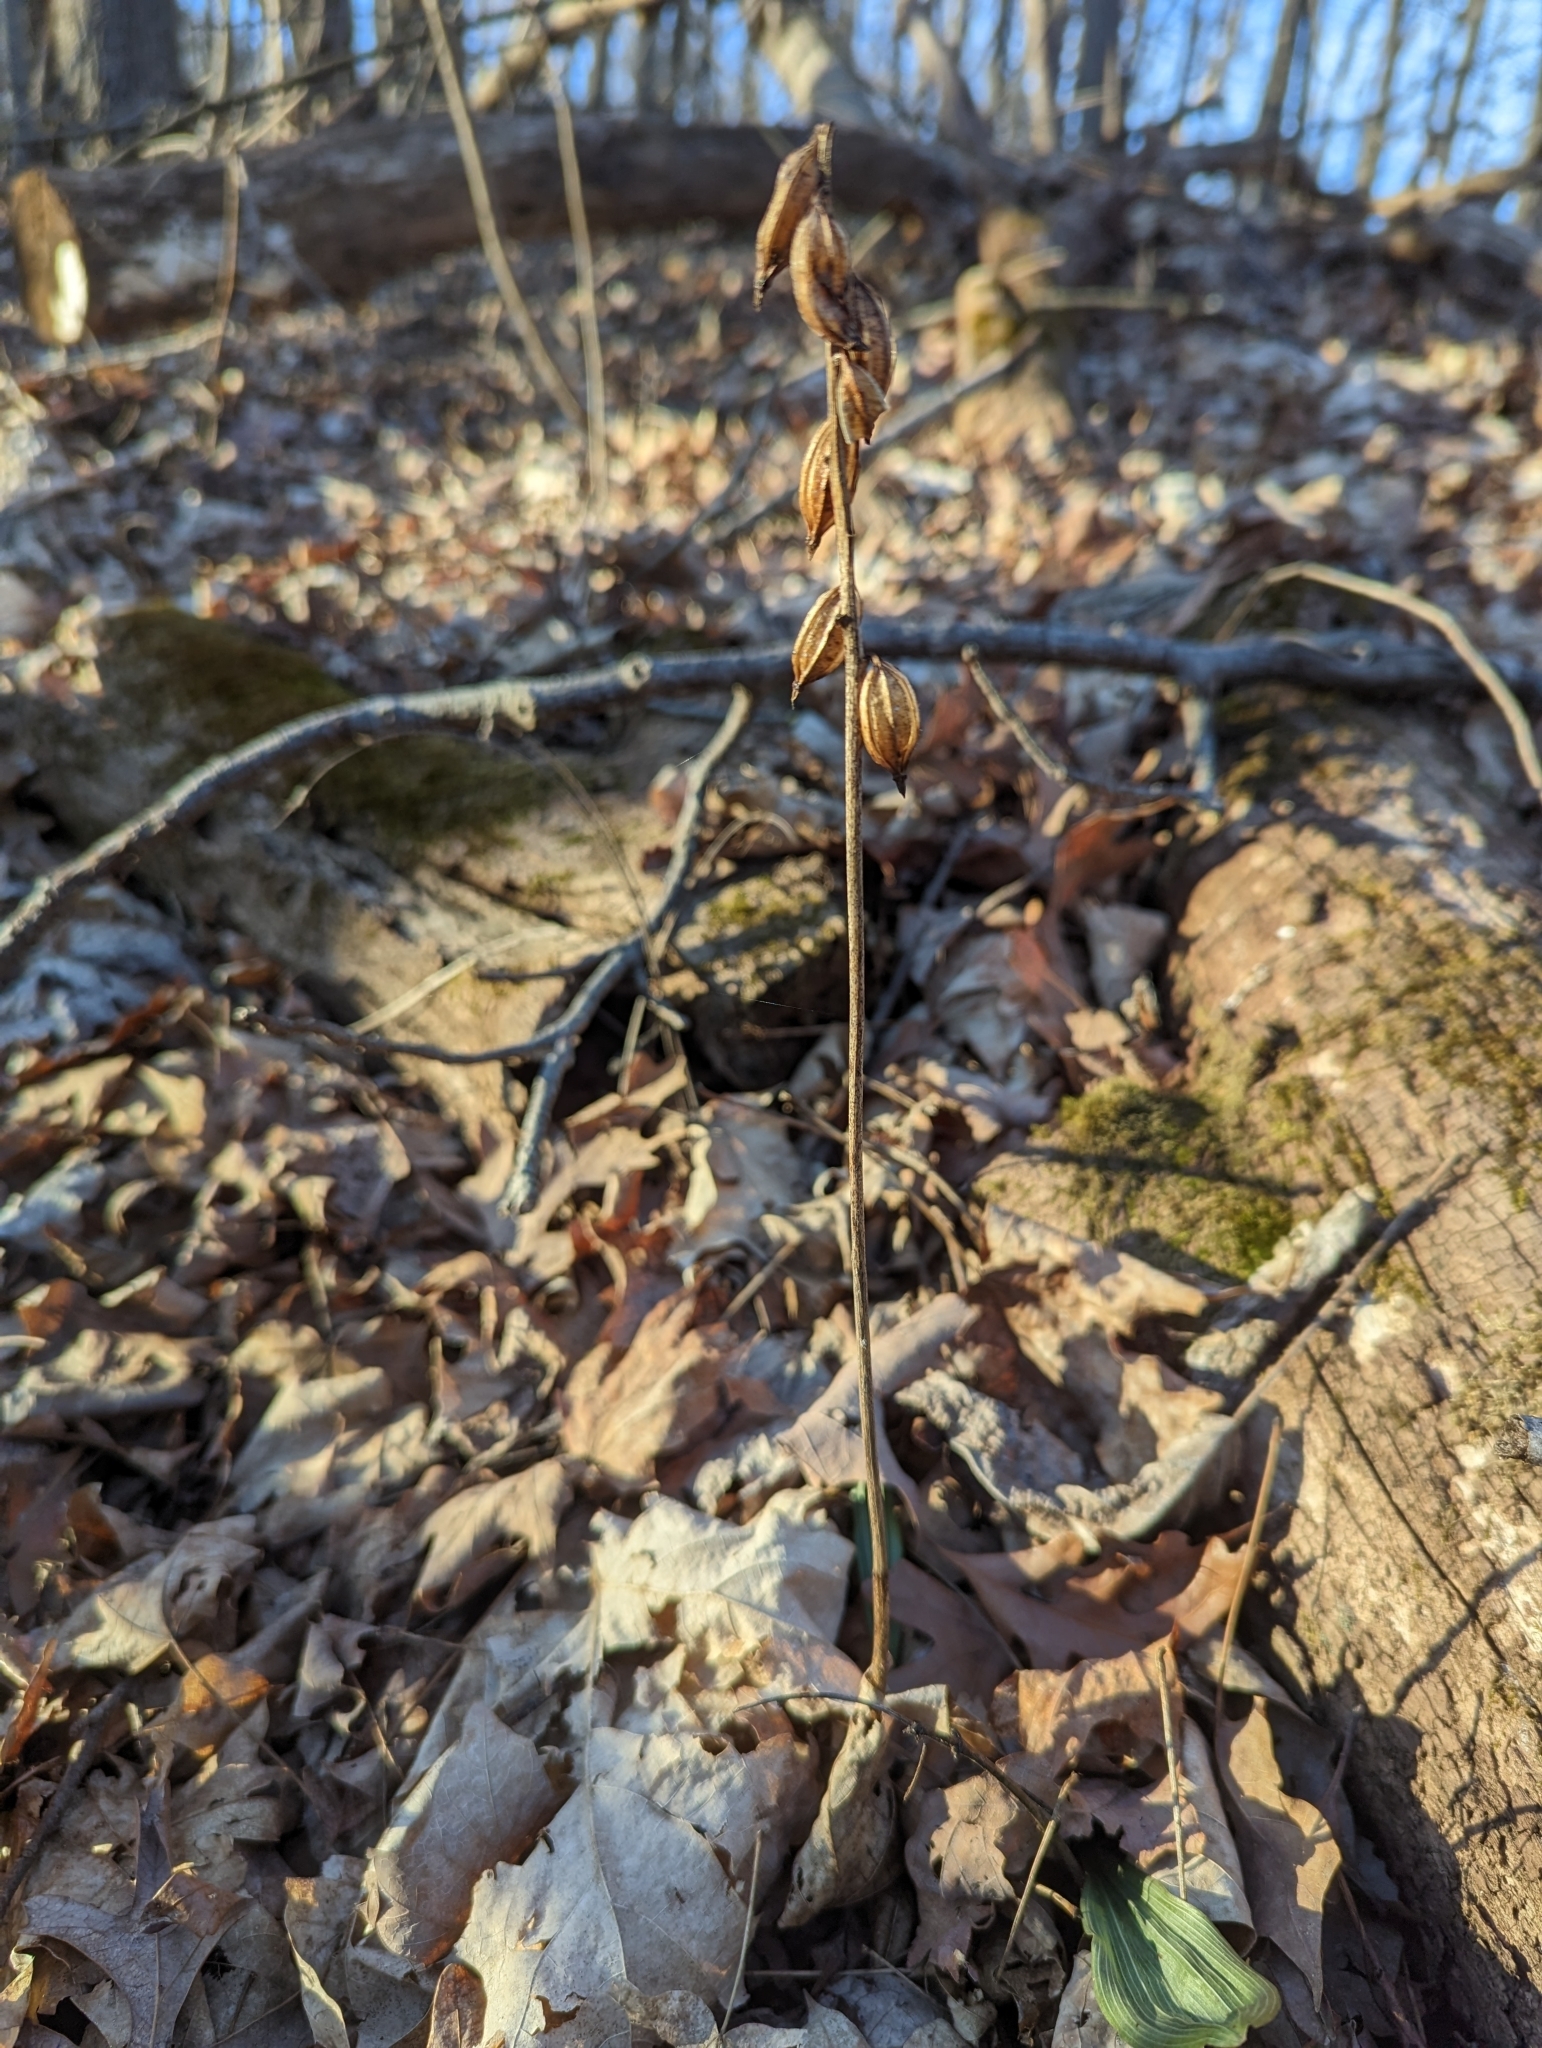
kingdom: Plantae
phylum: Tracheophyta
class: Liliopsida
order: Asparagales
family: Orchidaceae
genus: Aplectrum
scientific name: Aplectrum hyemale
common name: Adam-and-eve
